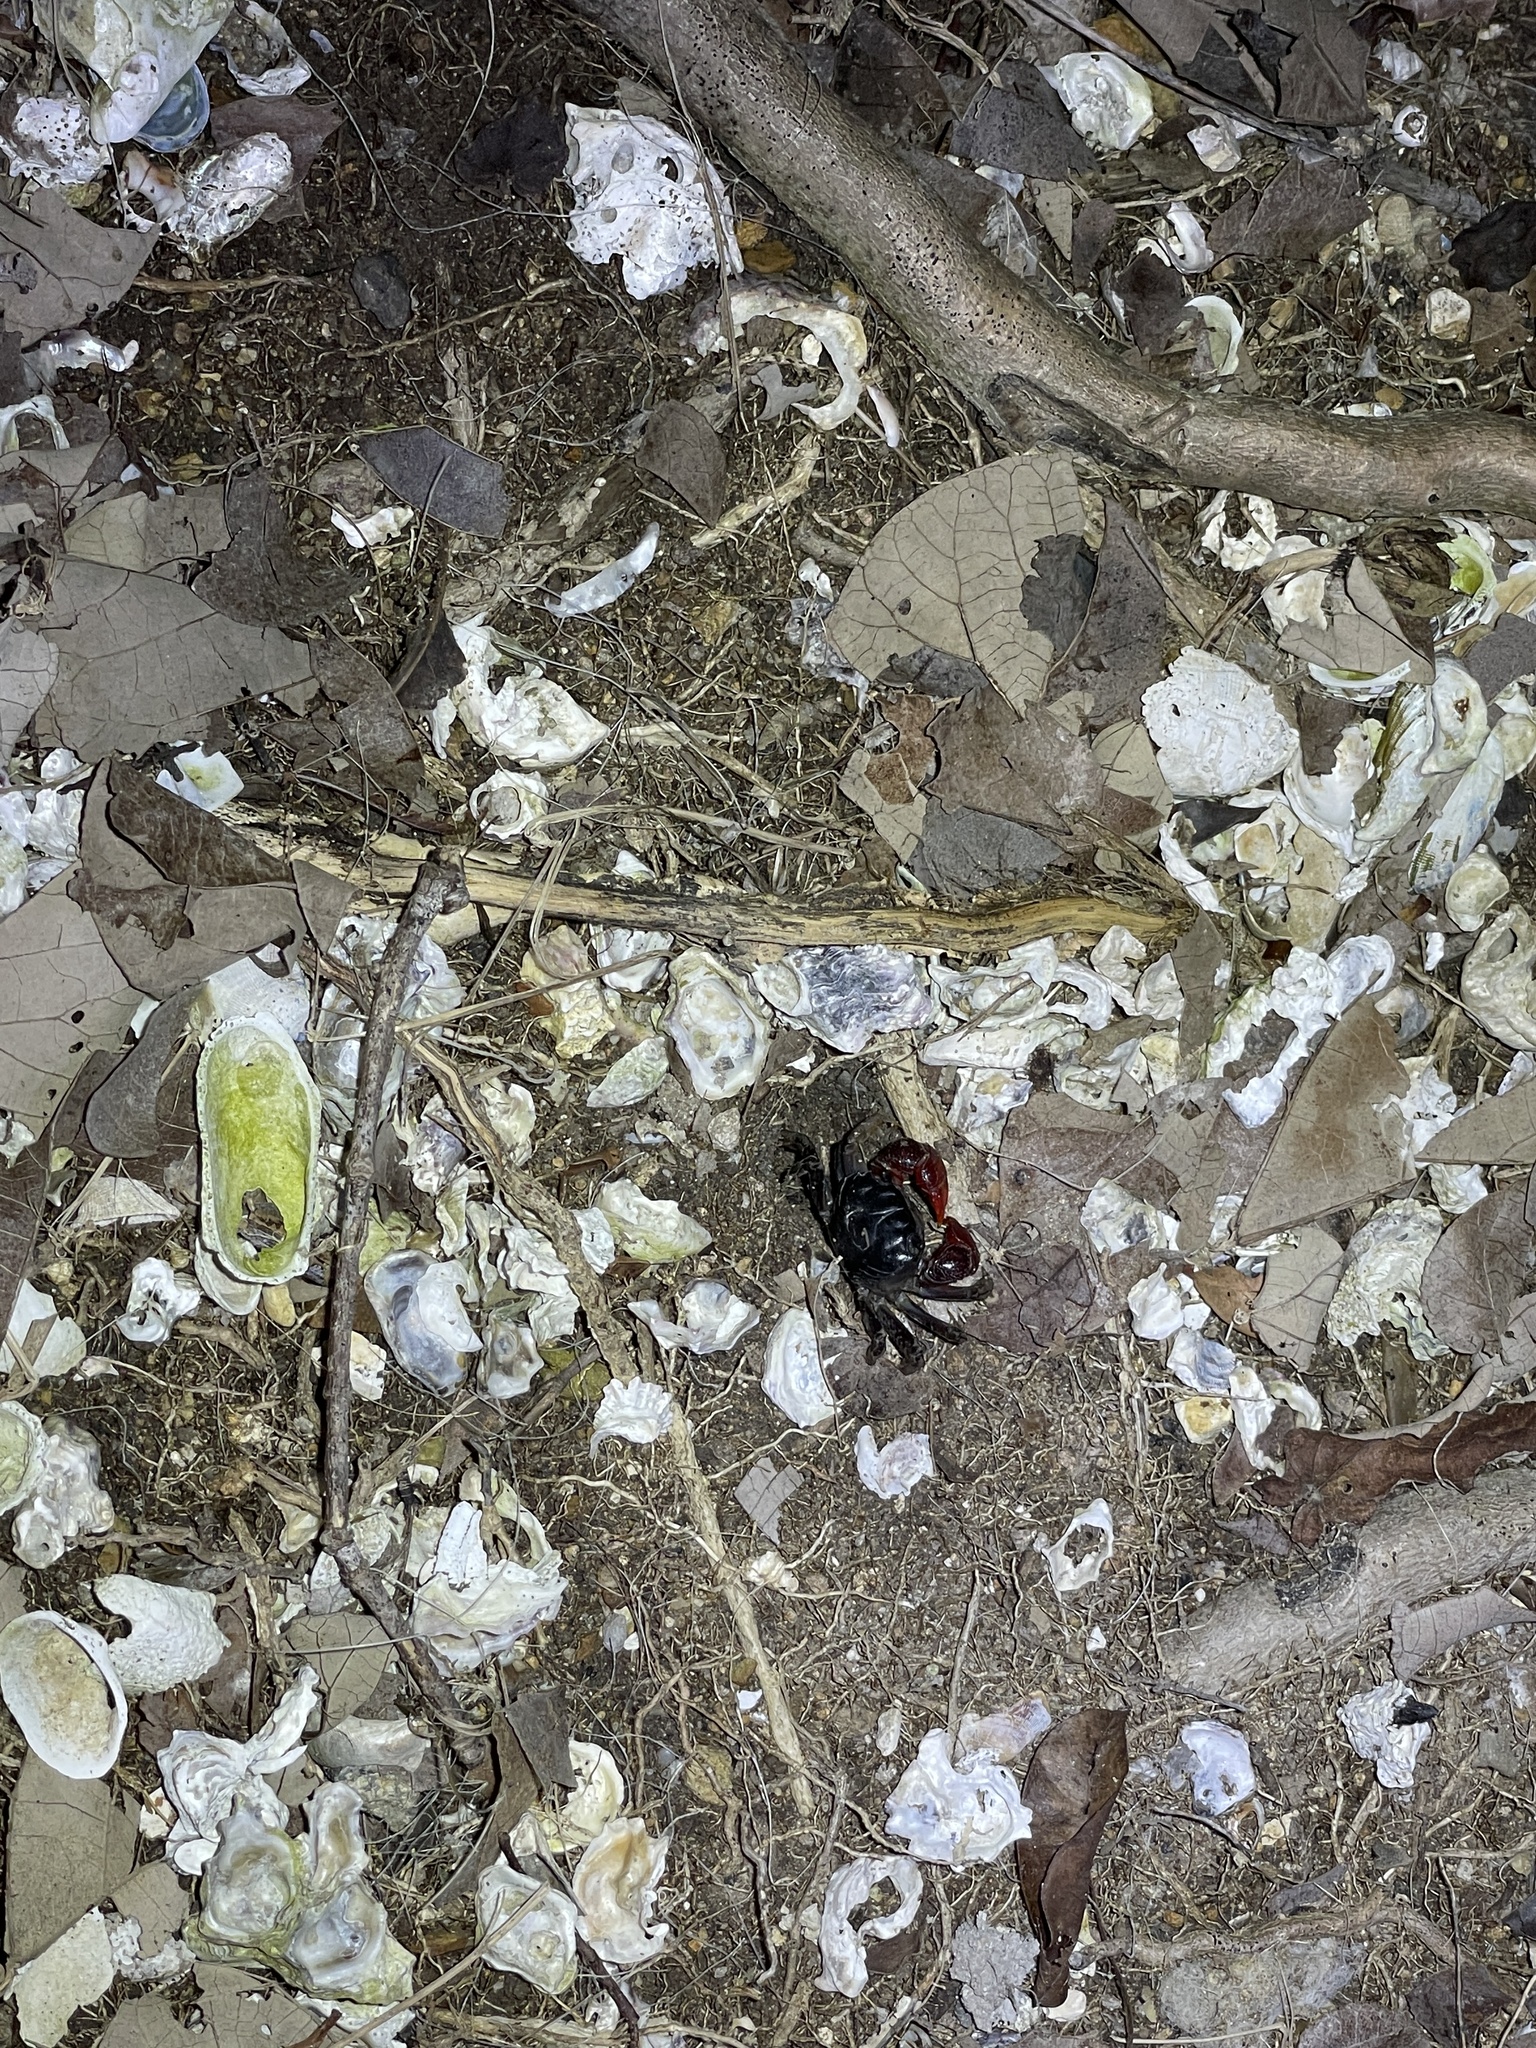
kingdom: Animalia
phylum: Arthropoda
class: Malacostraca
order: Decapoda
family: Sesarmidae
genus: Neosarmatium
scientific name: Neosarmatium indicum
